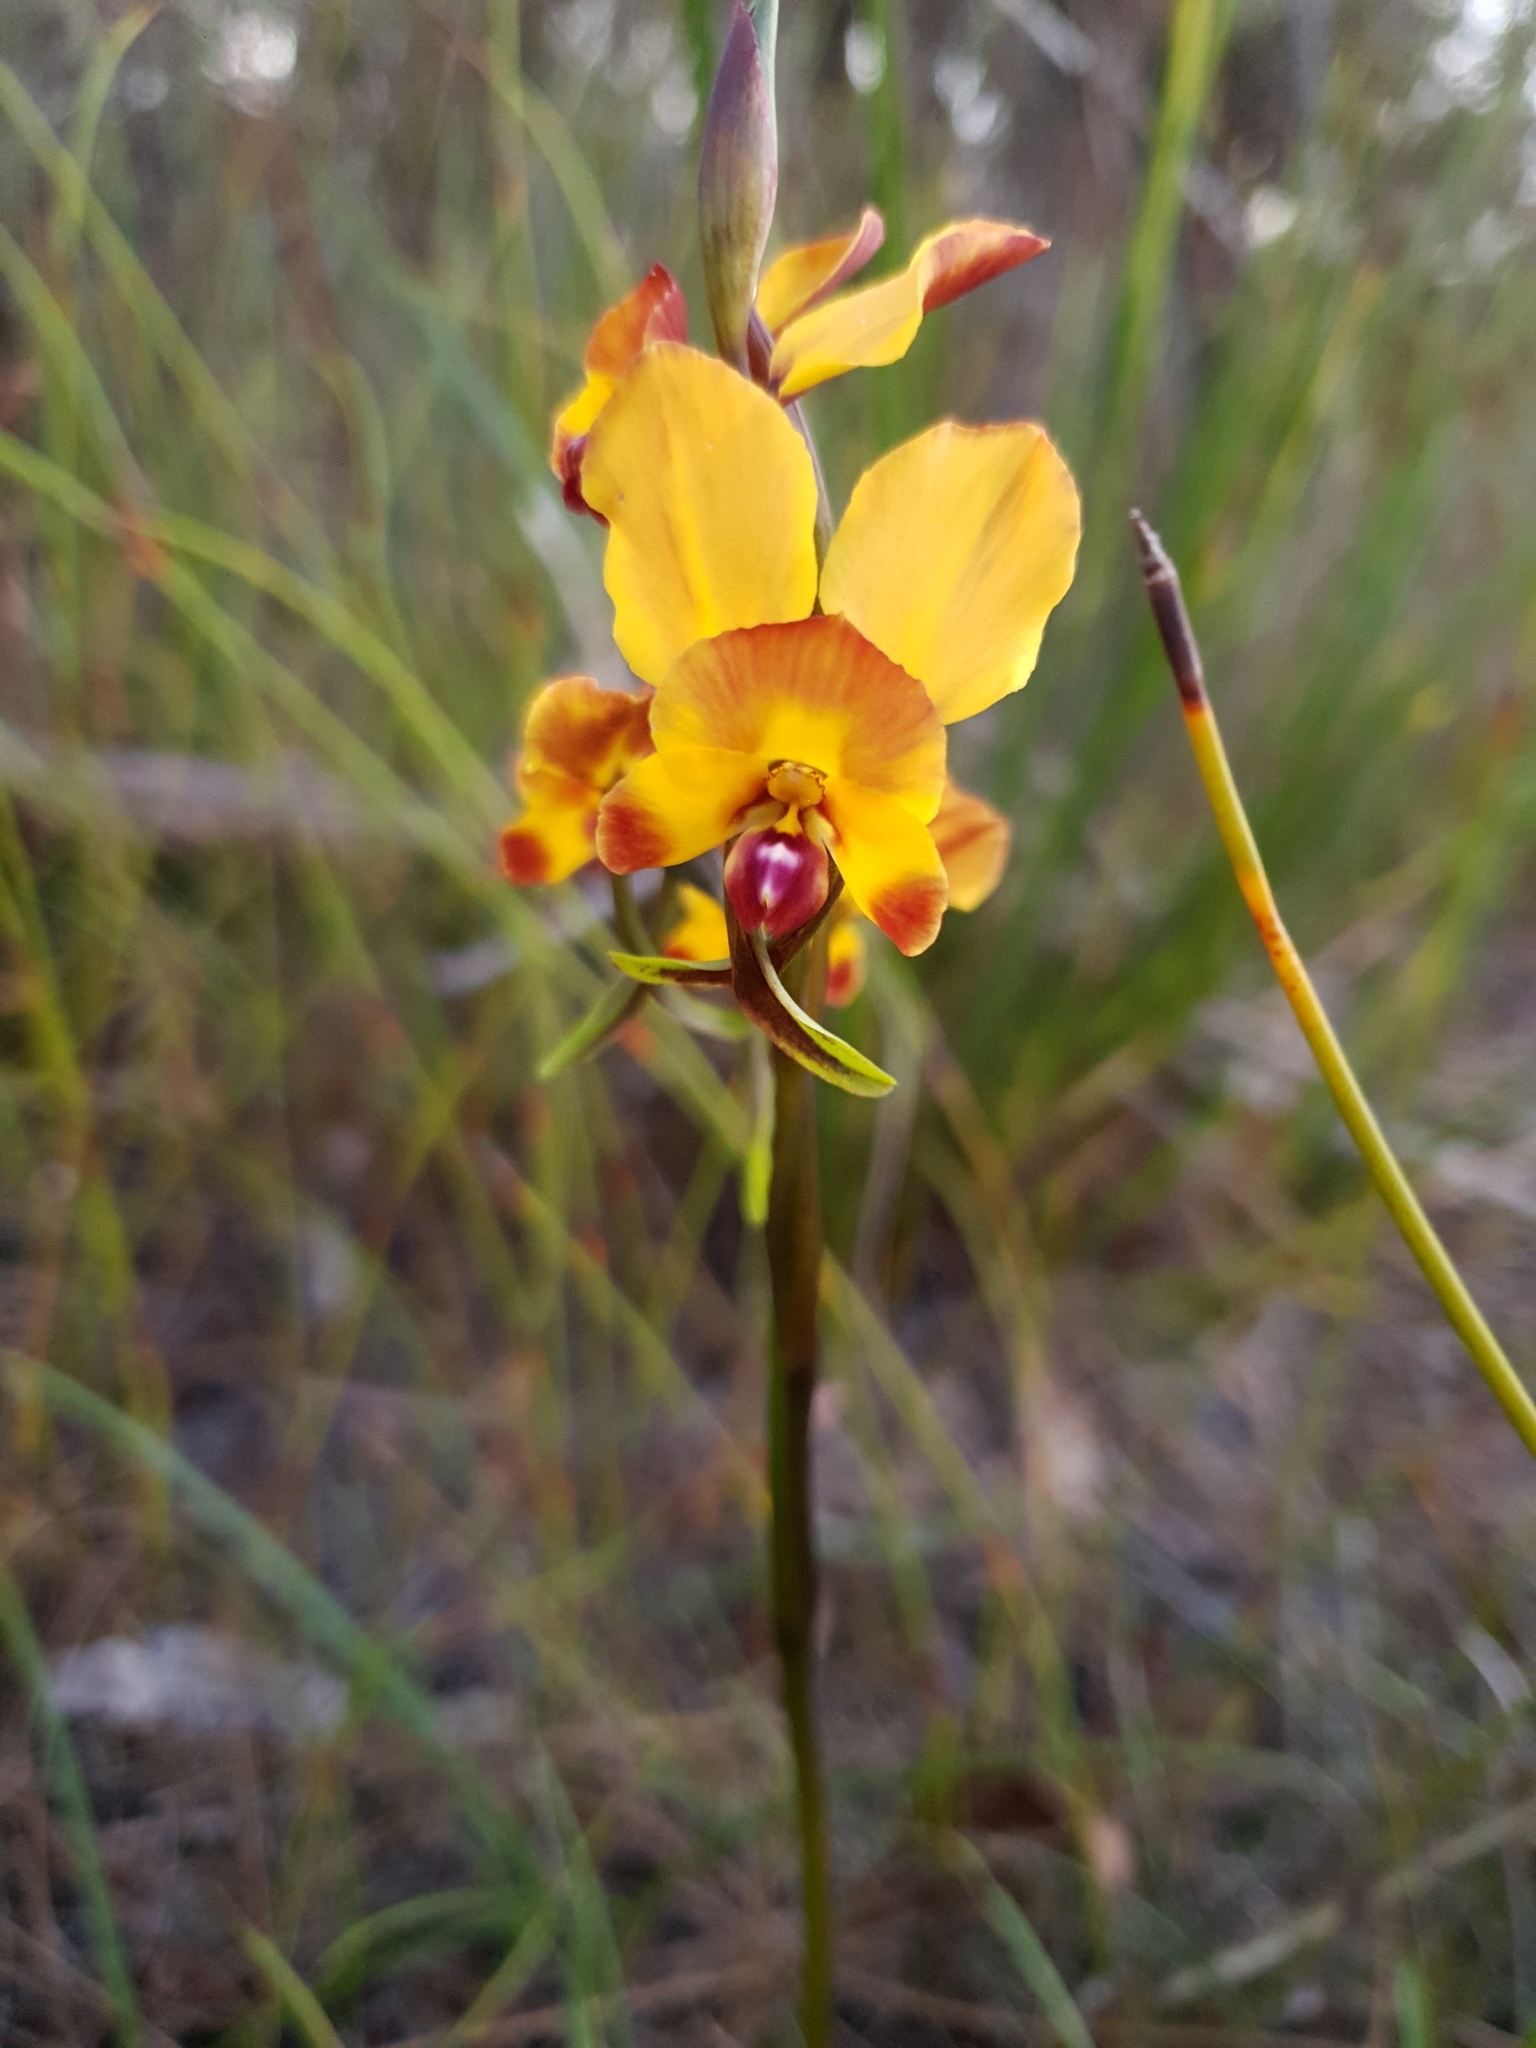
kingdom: Plantae
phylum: Tracheophyta
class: Liliopsida
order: Asparagales
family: Orchidaceae
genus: Diuris
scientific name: Diuris littoralis
